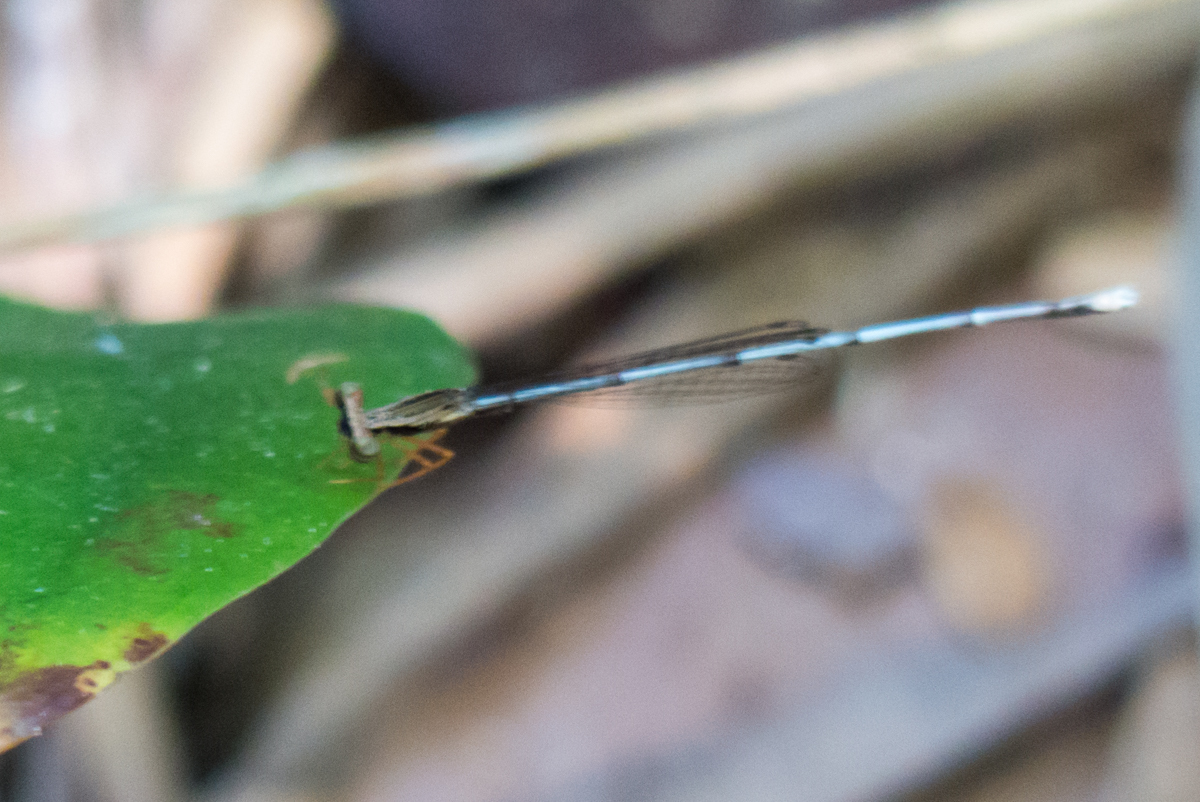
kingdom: Animalia
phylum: Arthropoda
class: Insecta
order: Odonata
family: Platycnemididae
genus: Copera
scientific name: Copera vittata
